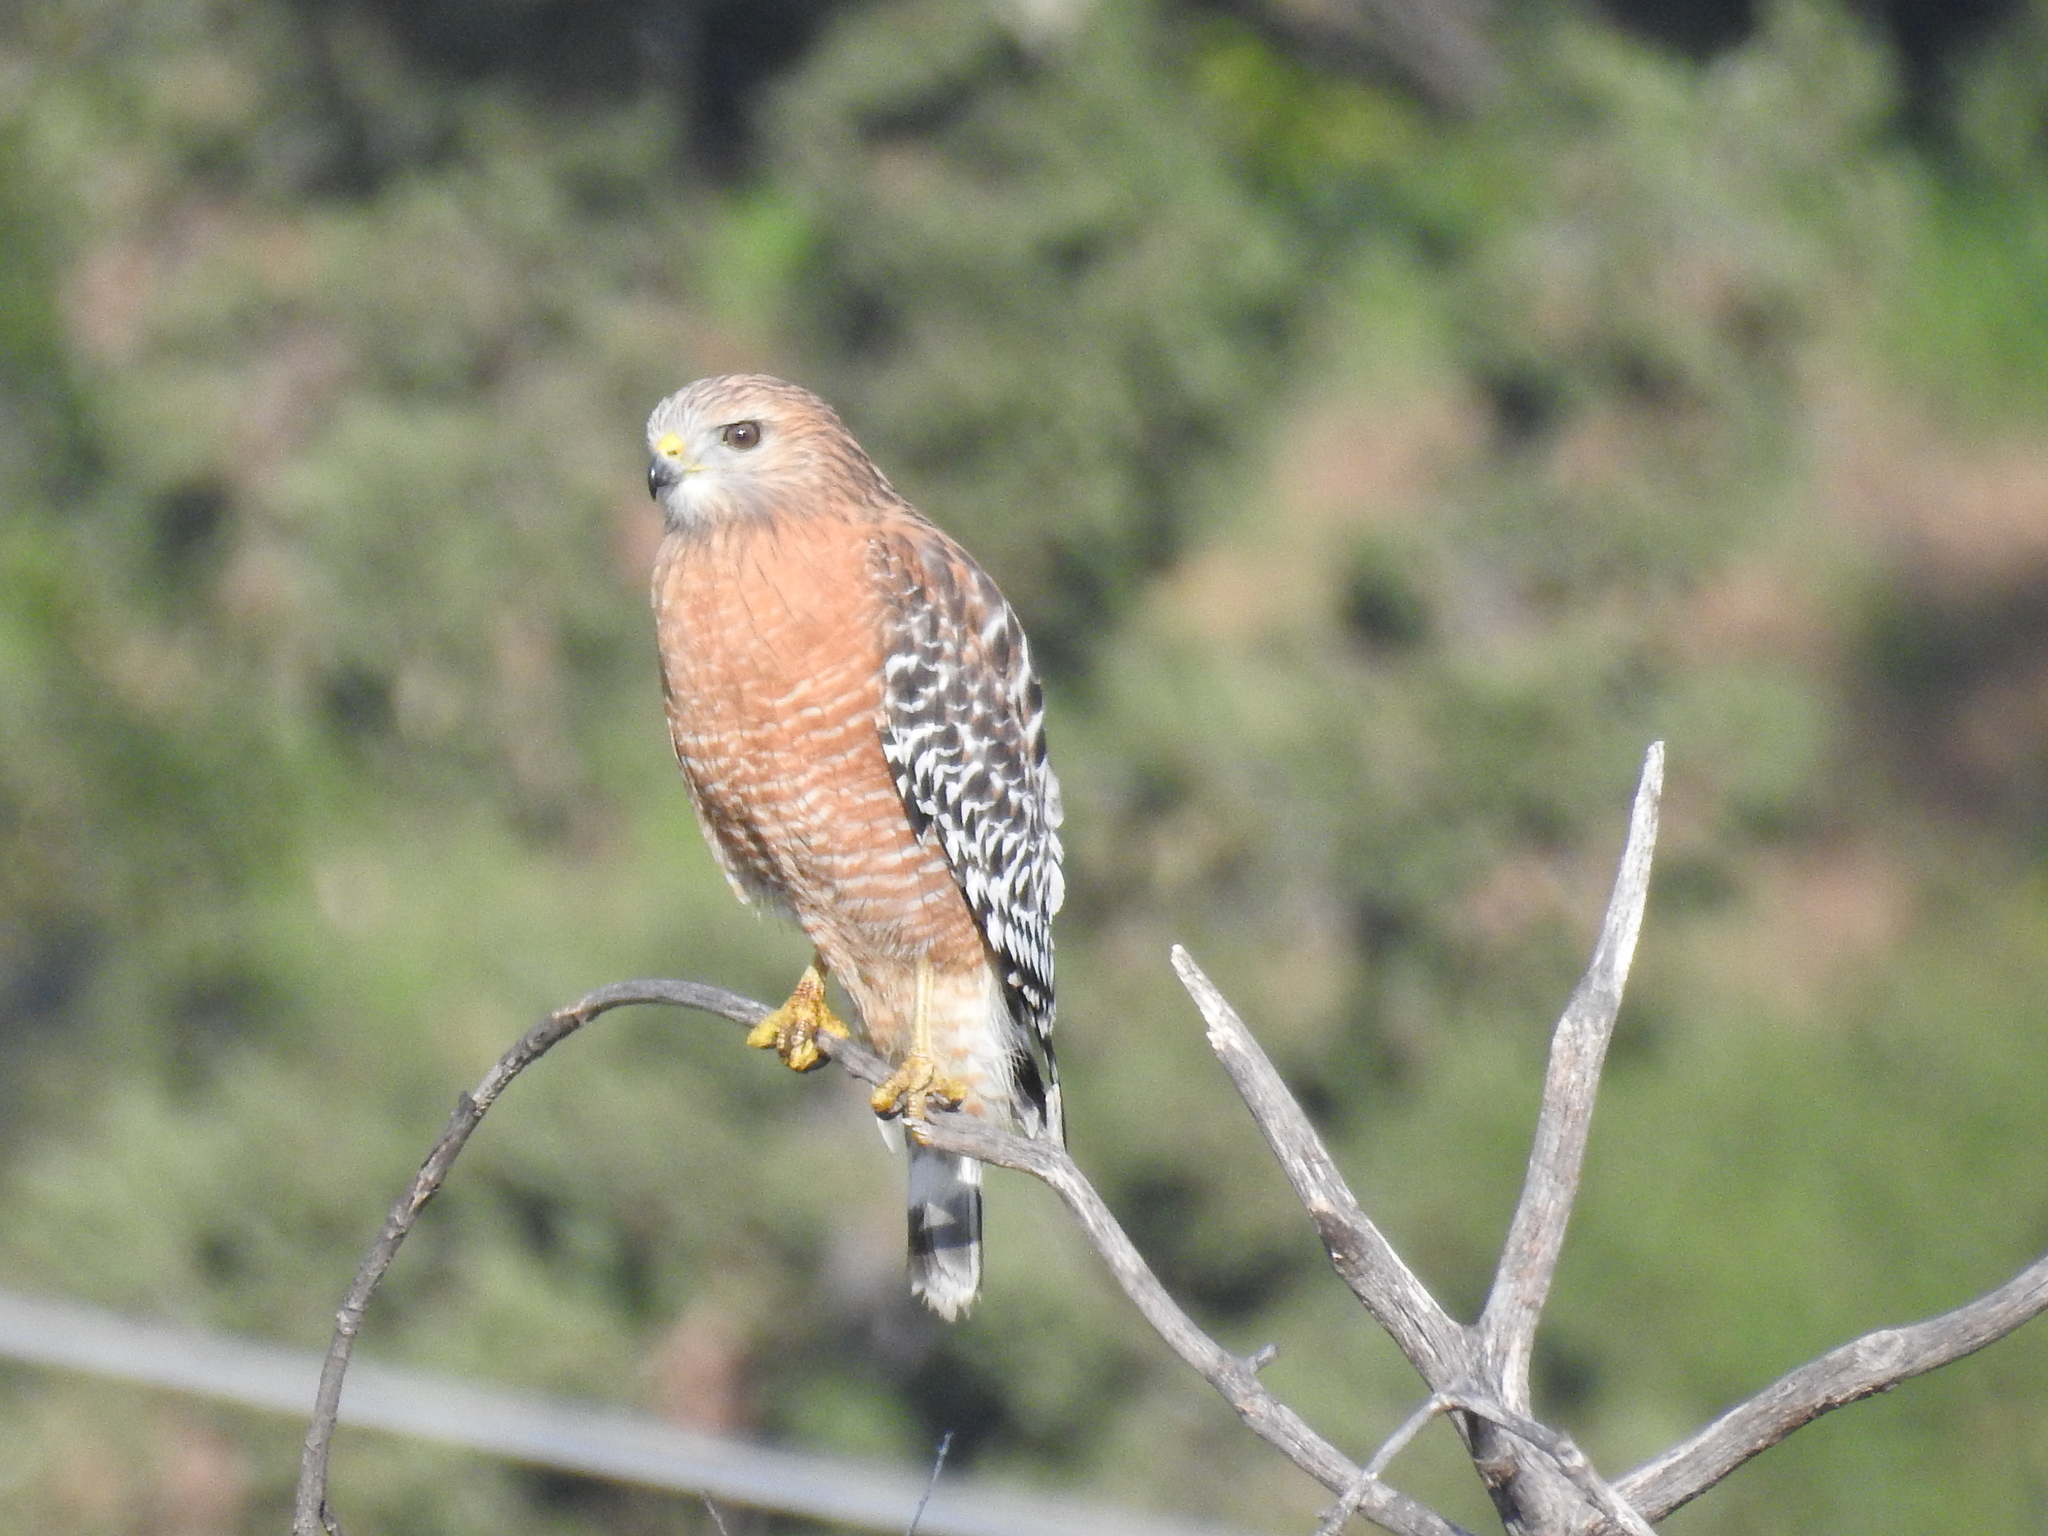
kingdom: Animalia
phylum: Chordata
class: Aves
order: Accipitriformes
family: Accipitridae
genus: Buteo
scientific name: Buteo lineatus
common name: Red-shouldered hawk
